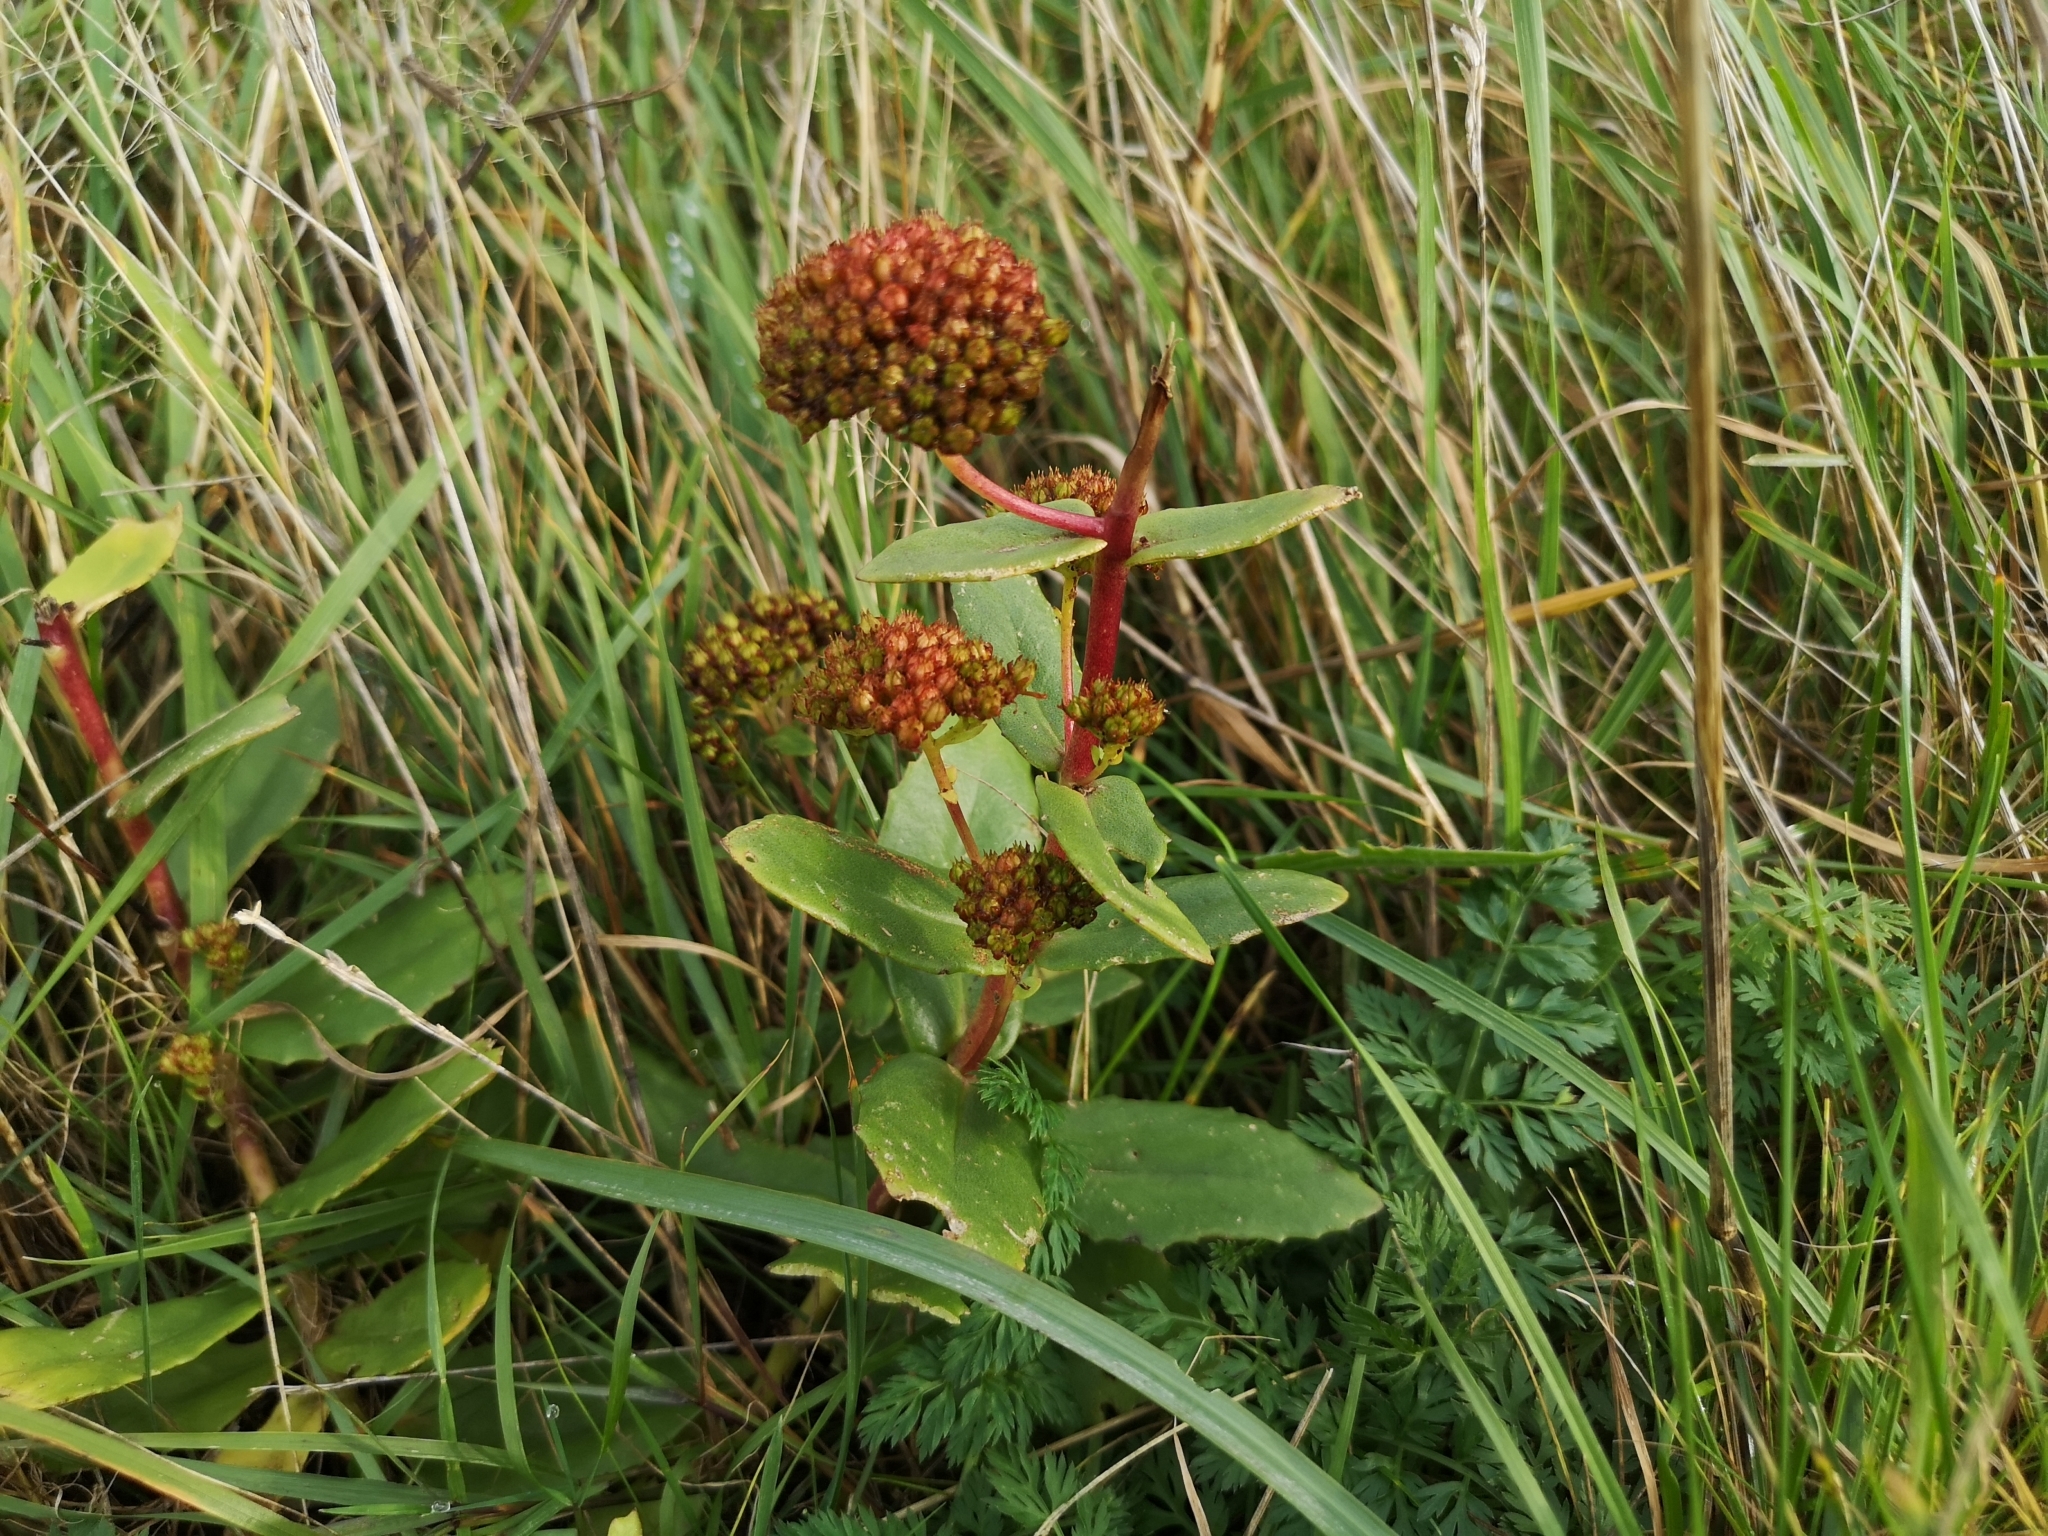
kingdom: Plantae
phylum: Tracheophyta
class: Magnoliopsida
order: Saxifragales
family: Crassulaceae
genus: Hylotelephium
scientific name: Hylotelephium telephium
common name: Live-forever
